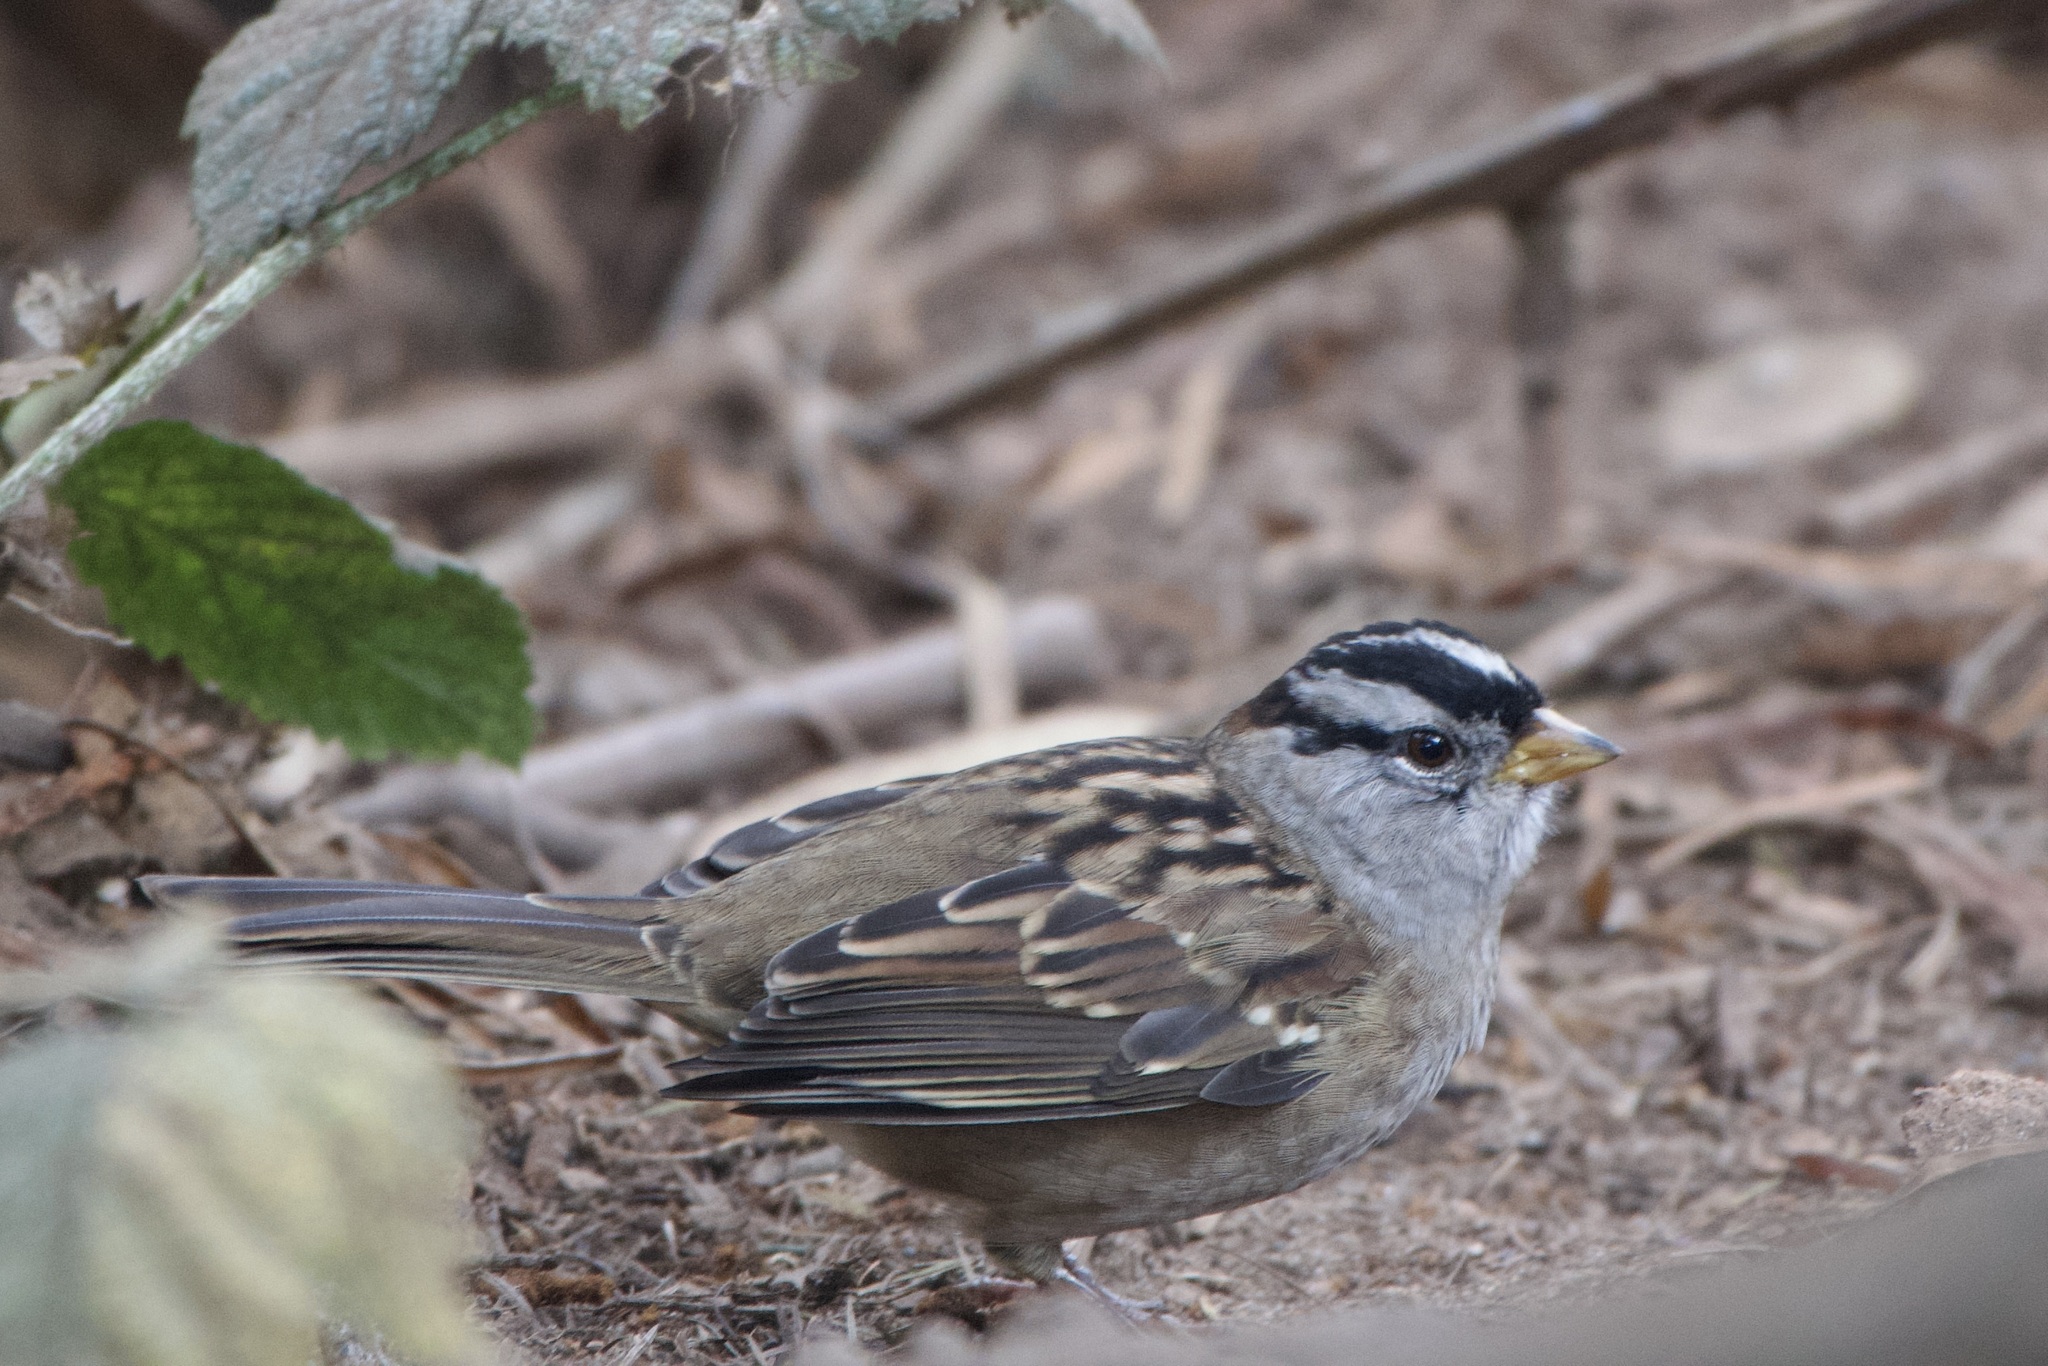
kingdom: Animalia
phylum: Chordata
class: Aves
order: Passeriformes
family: Passerellidae
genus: Zonotrichia
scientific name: Zonotrichia leucophrys
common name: White-crowned sparrow
